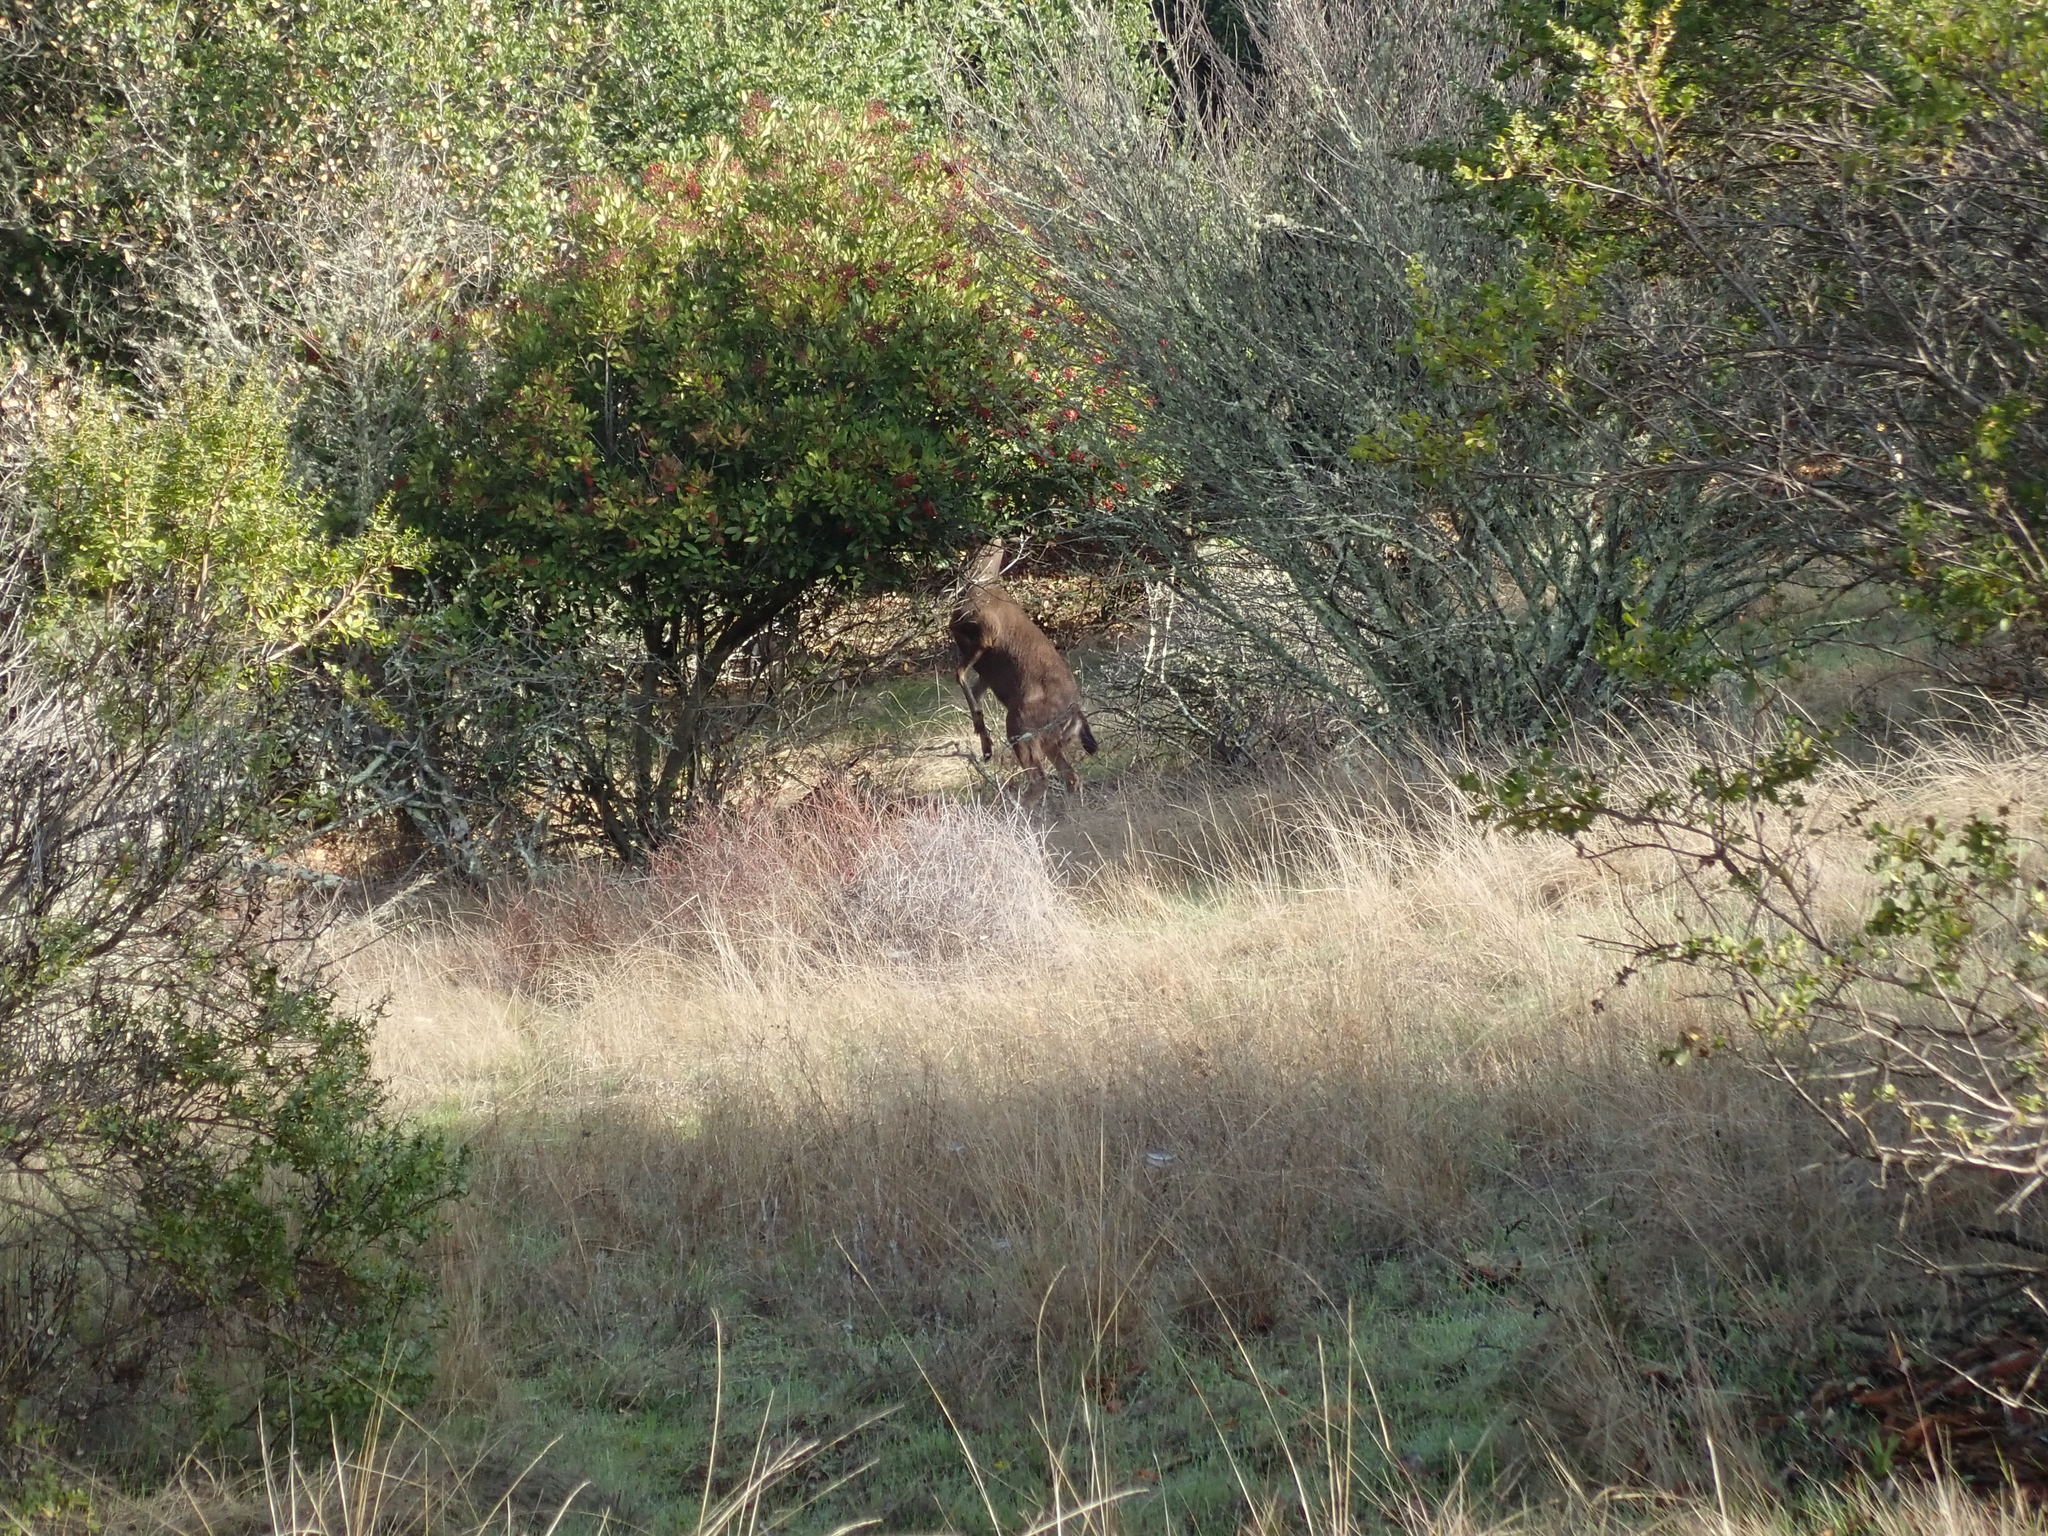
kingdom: Animalia
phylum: Chordata
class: Mammalia
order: Artiodactyla
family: Cervidae
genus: Odocoileus
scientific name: Odocoileus hemionus
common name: Mule deer
